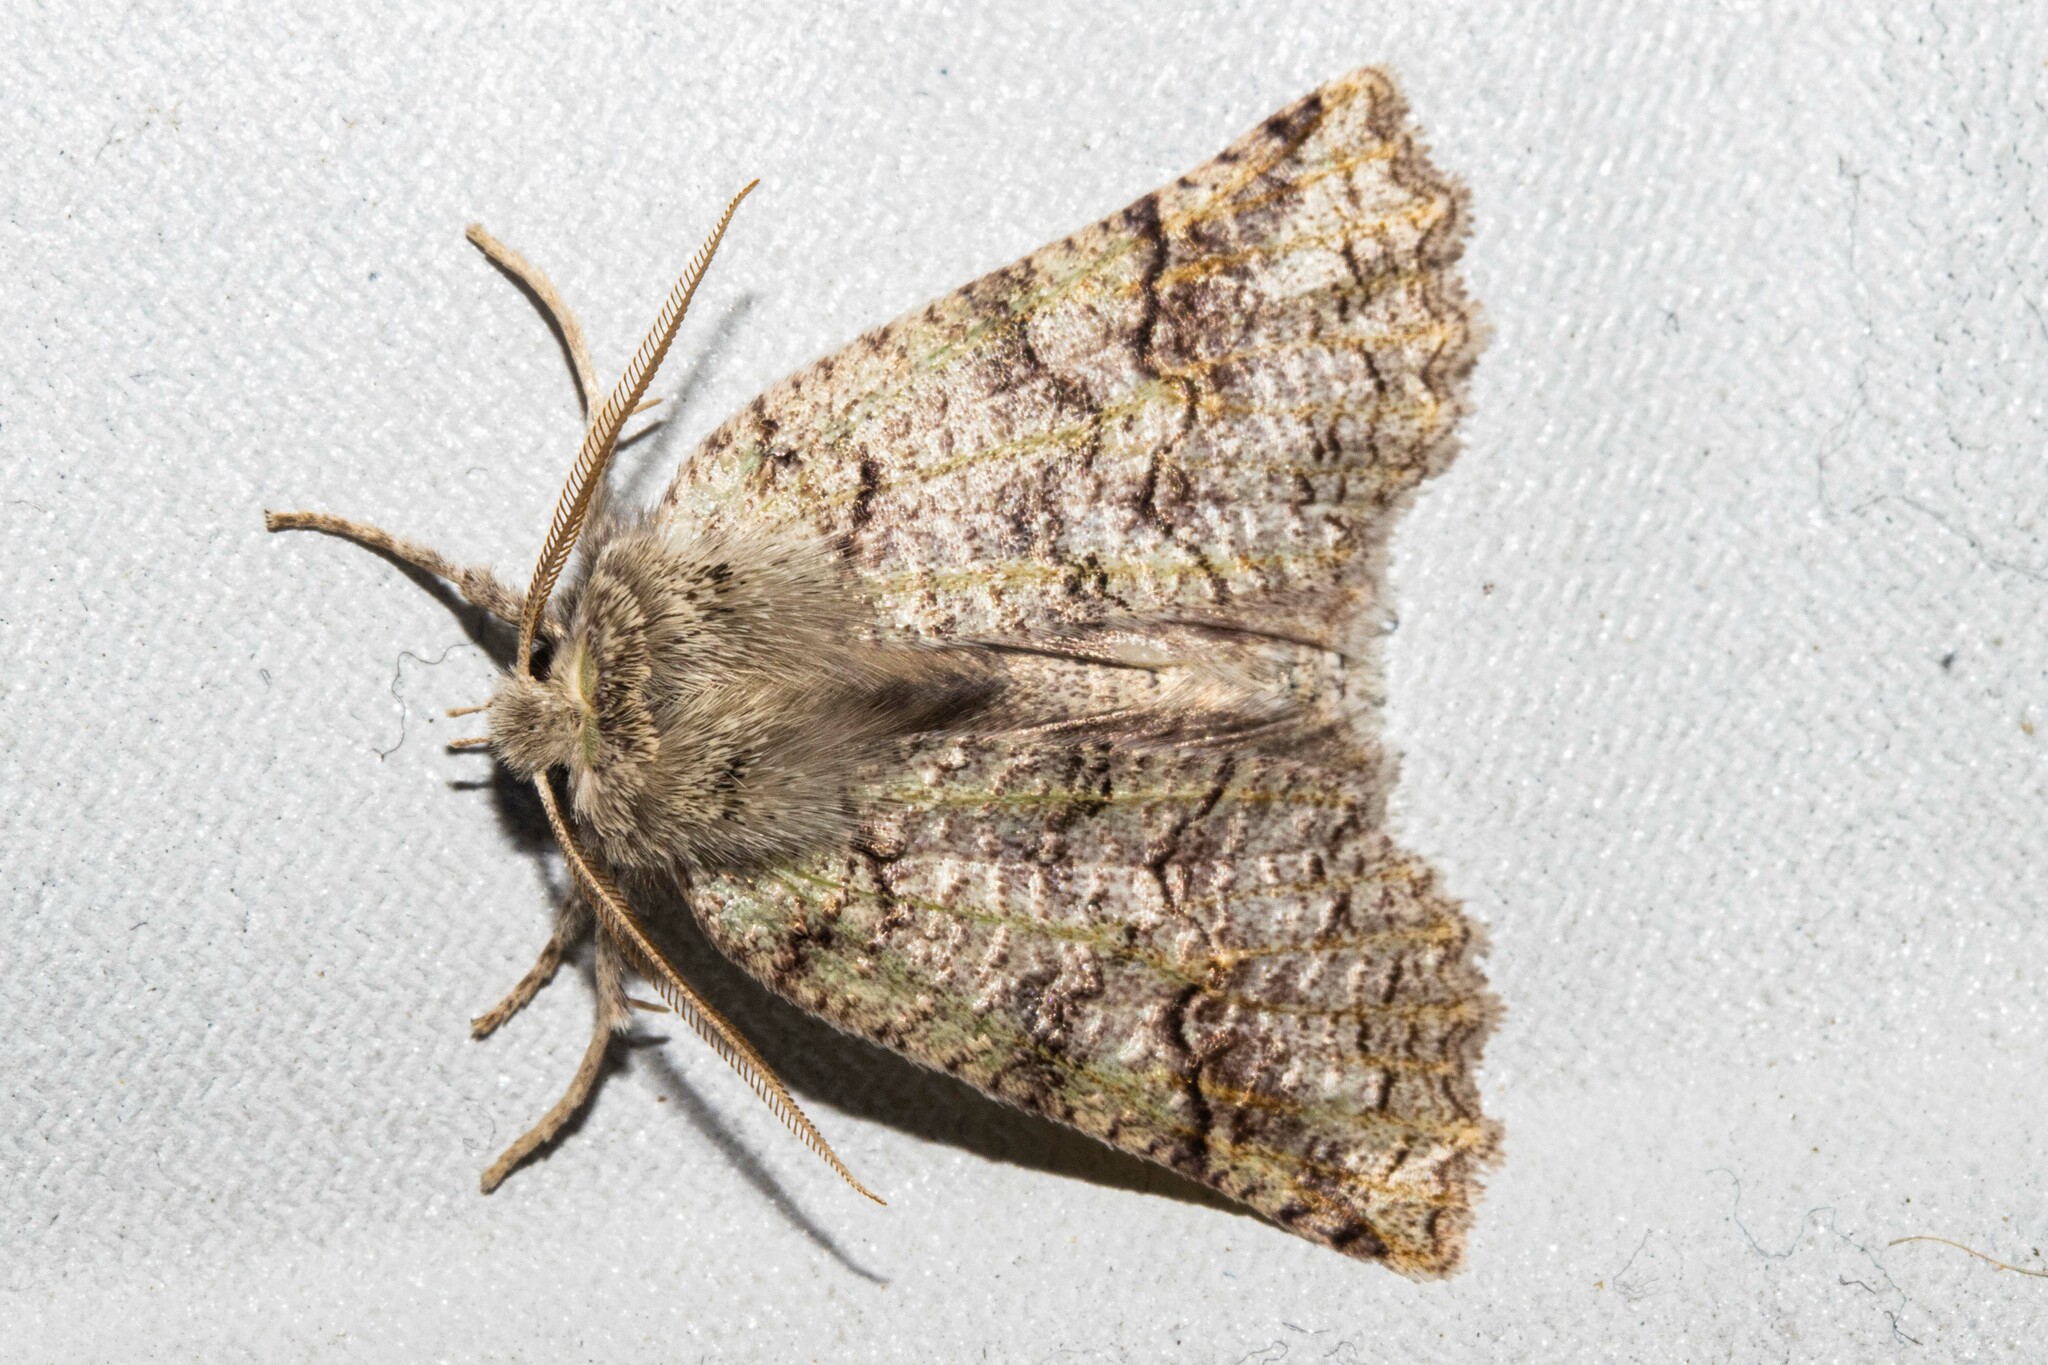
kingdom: Animalia
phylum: Arthropoda
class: Insecta
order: Lepidoptera
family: Geometridae
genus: Declana
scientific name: Declana floccosa
